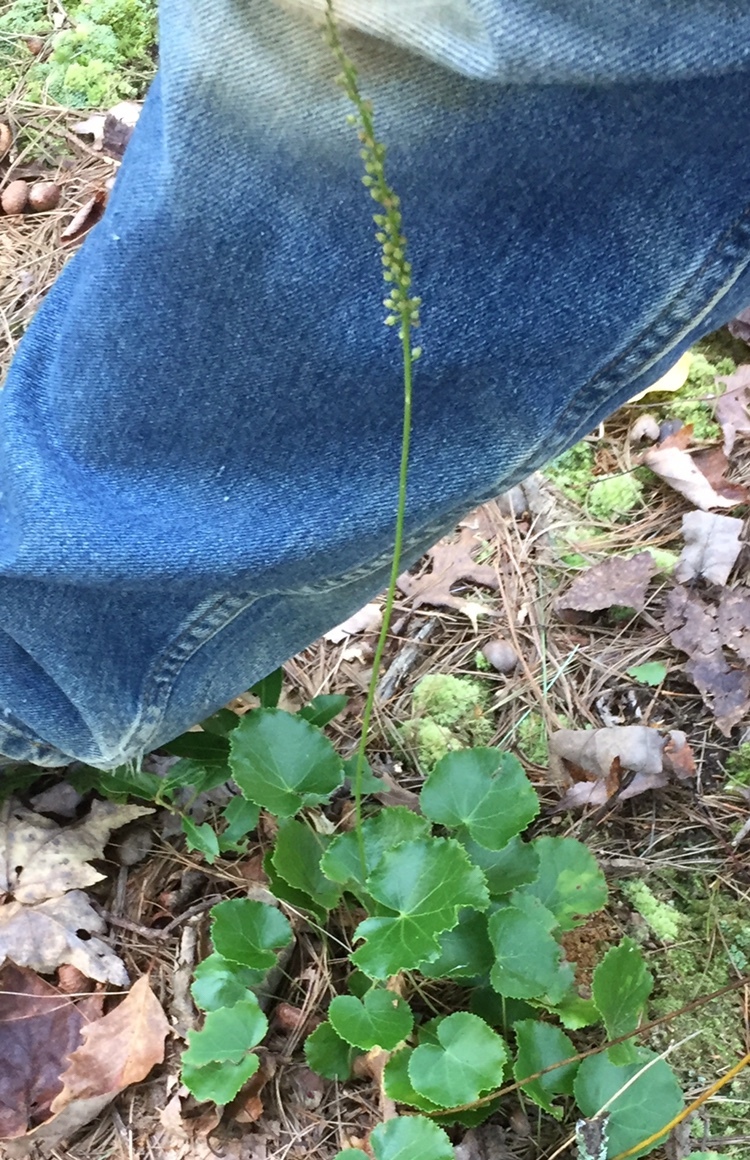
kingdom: Plantae
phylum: Tracheophyta
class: Magnoliopsida
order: Ericales
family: Diapensiaceae
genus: Galax
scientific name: Galax urceolata
